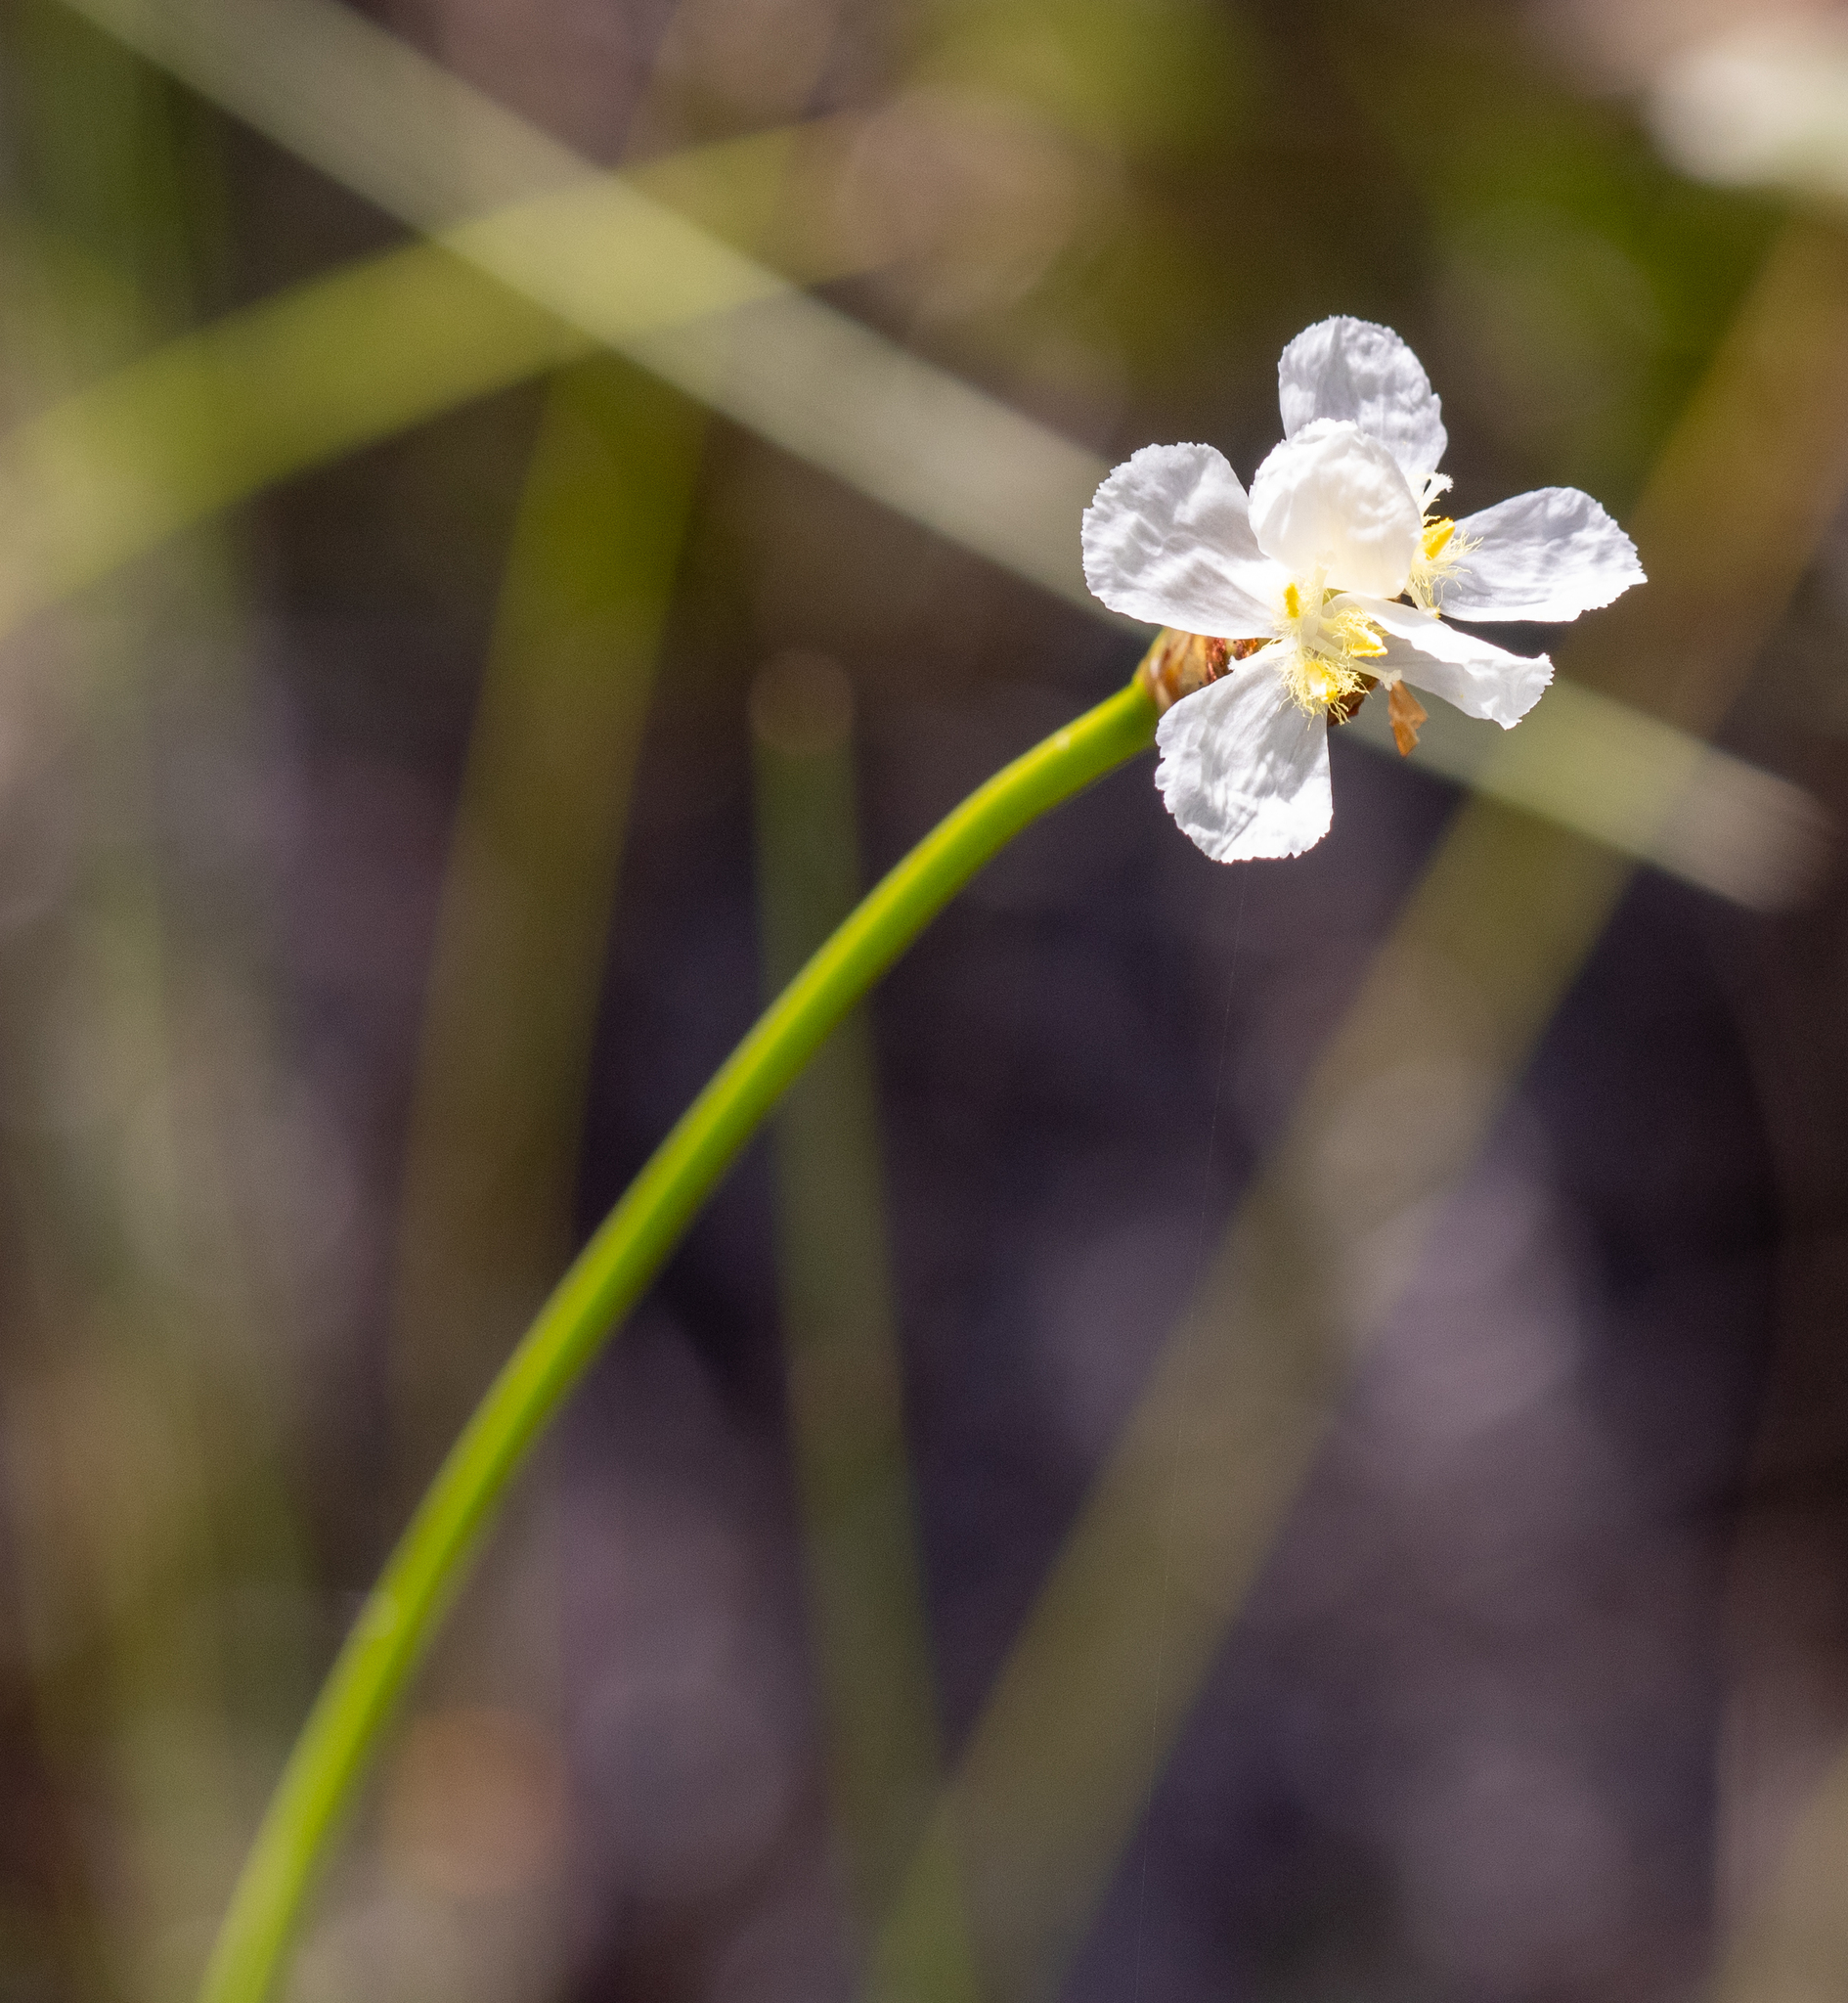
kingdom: Plantae
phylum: Tracheophyta
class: Liliopsida
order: Poales
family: Xyridaceae
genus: Xyris
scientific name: Xyris caroliniana
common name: Carolina yellow-eyed-grass
